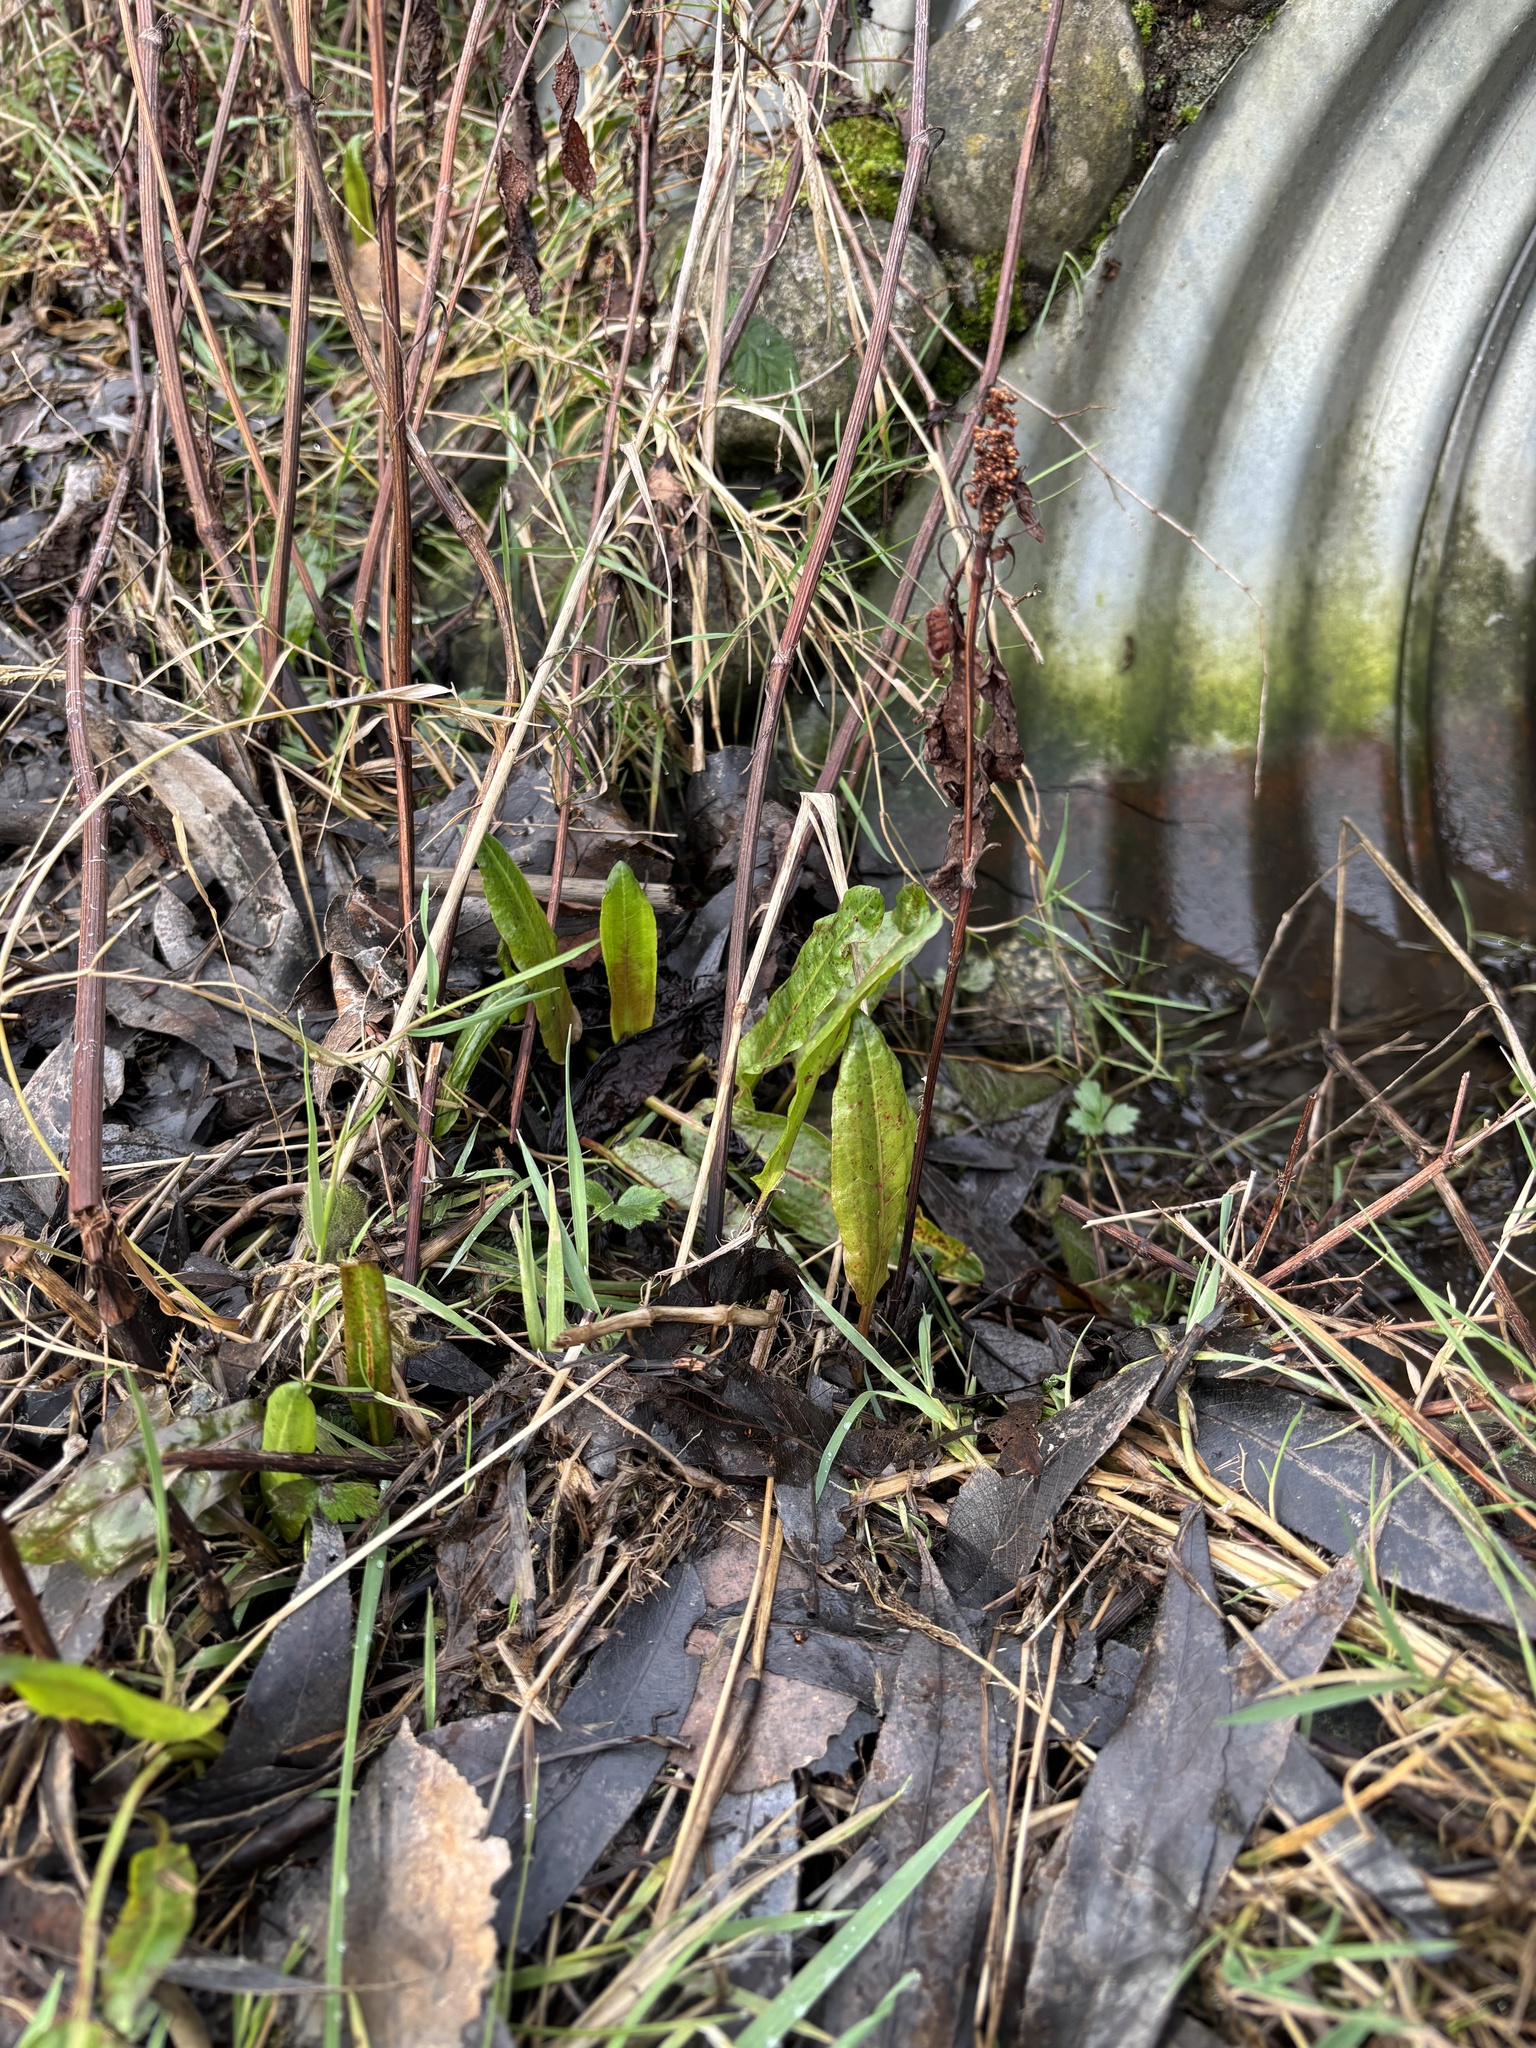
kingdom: Plantae
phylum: Tracheophyta
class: Liliopsida
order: Alismatales
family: Araceae
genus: Lysichiton
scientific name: Lysichiton americanus
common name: American skunk cabbage
